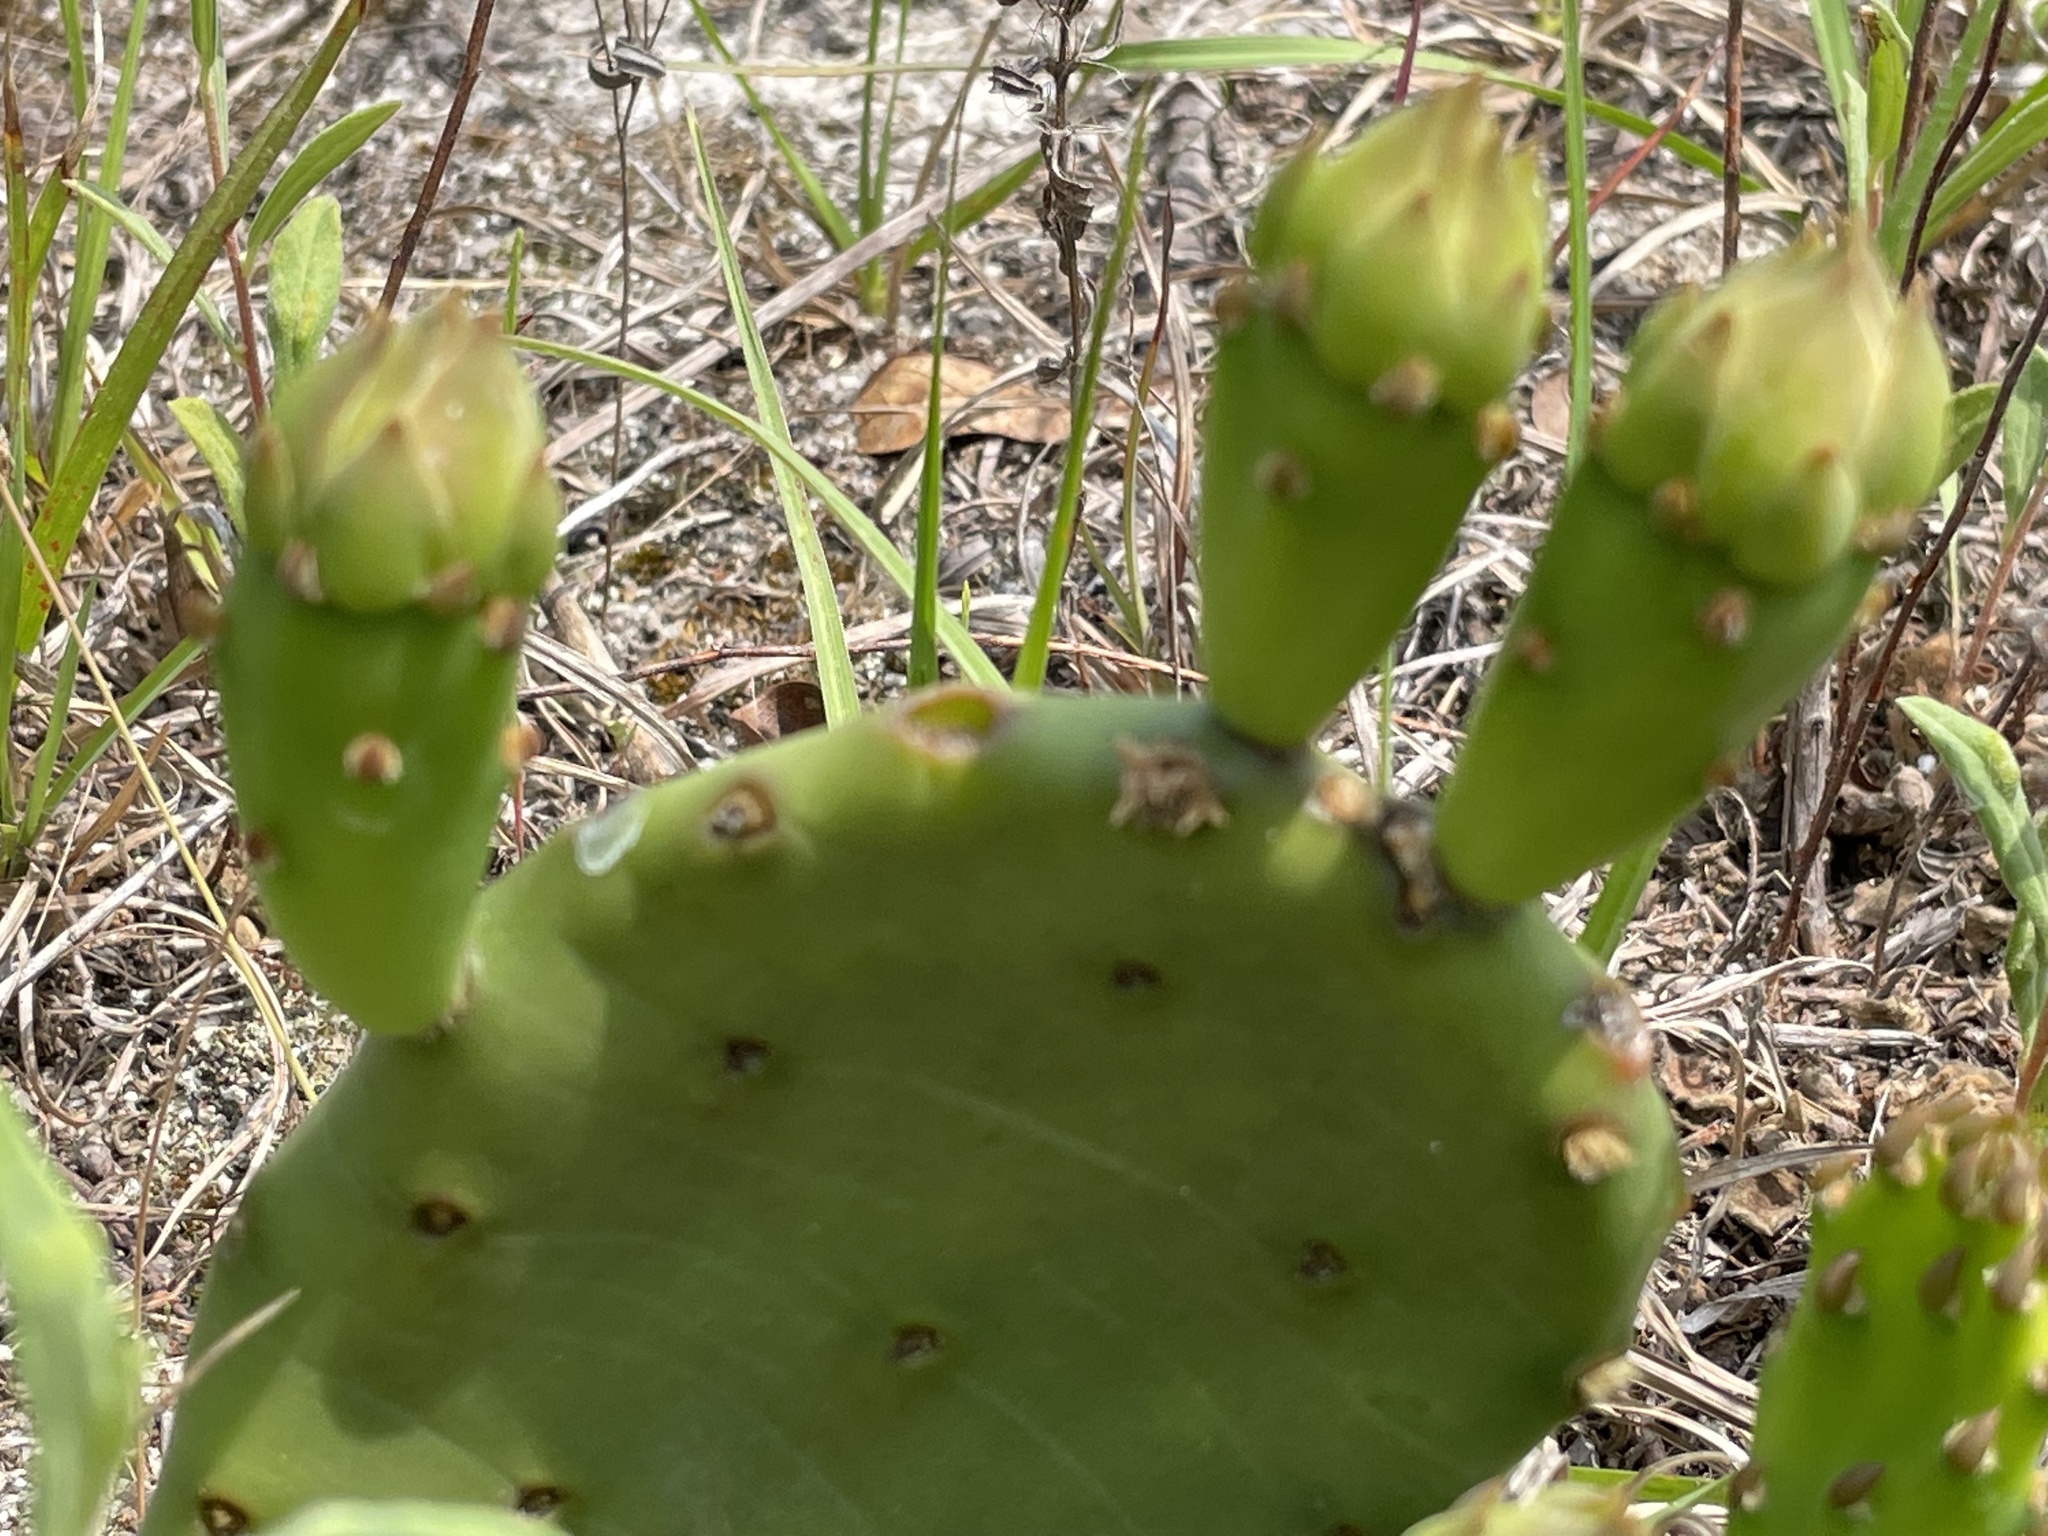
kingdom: Plantae
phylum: Tracheophyta
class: Magnoliopsida
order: Caryophyllales
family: Cactaceae
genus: Opuntia
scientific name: Opuntia mesacantha
